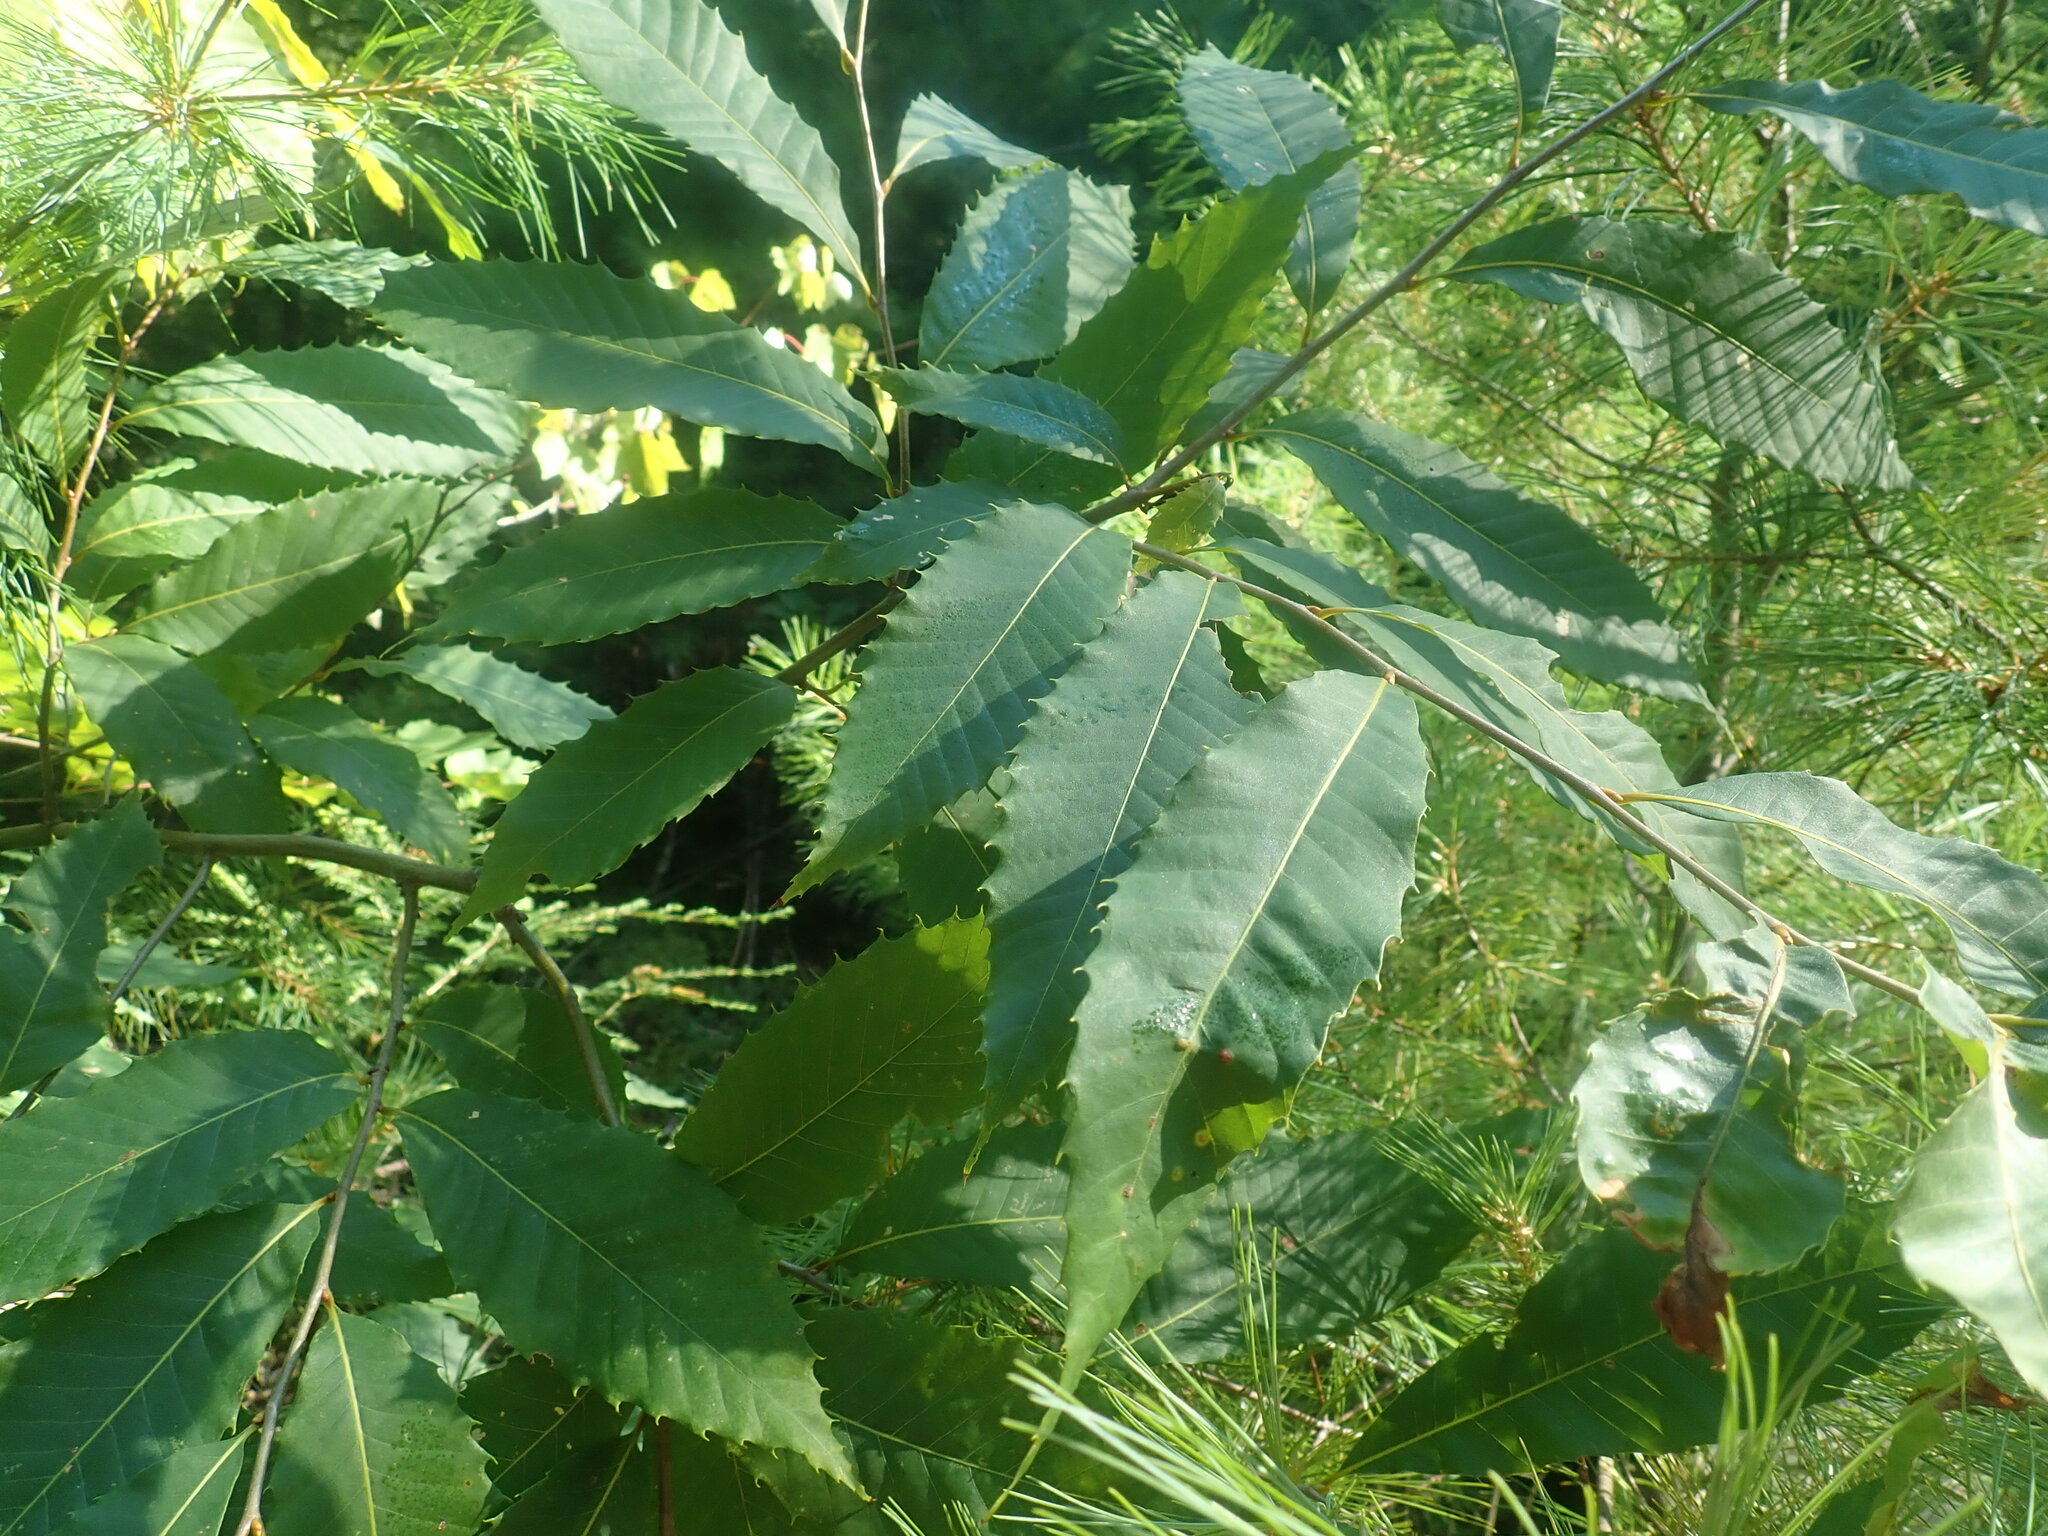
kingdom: Plantae
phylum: Tracheophyta
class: Magnoliopsida
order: Fagales
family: Fagaceae
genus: Castanea
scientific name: Castanea dentata
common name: American chestnut
